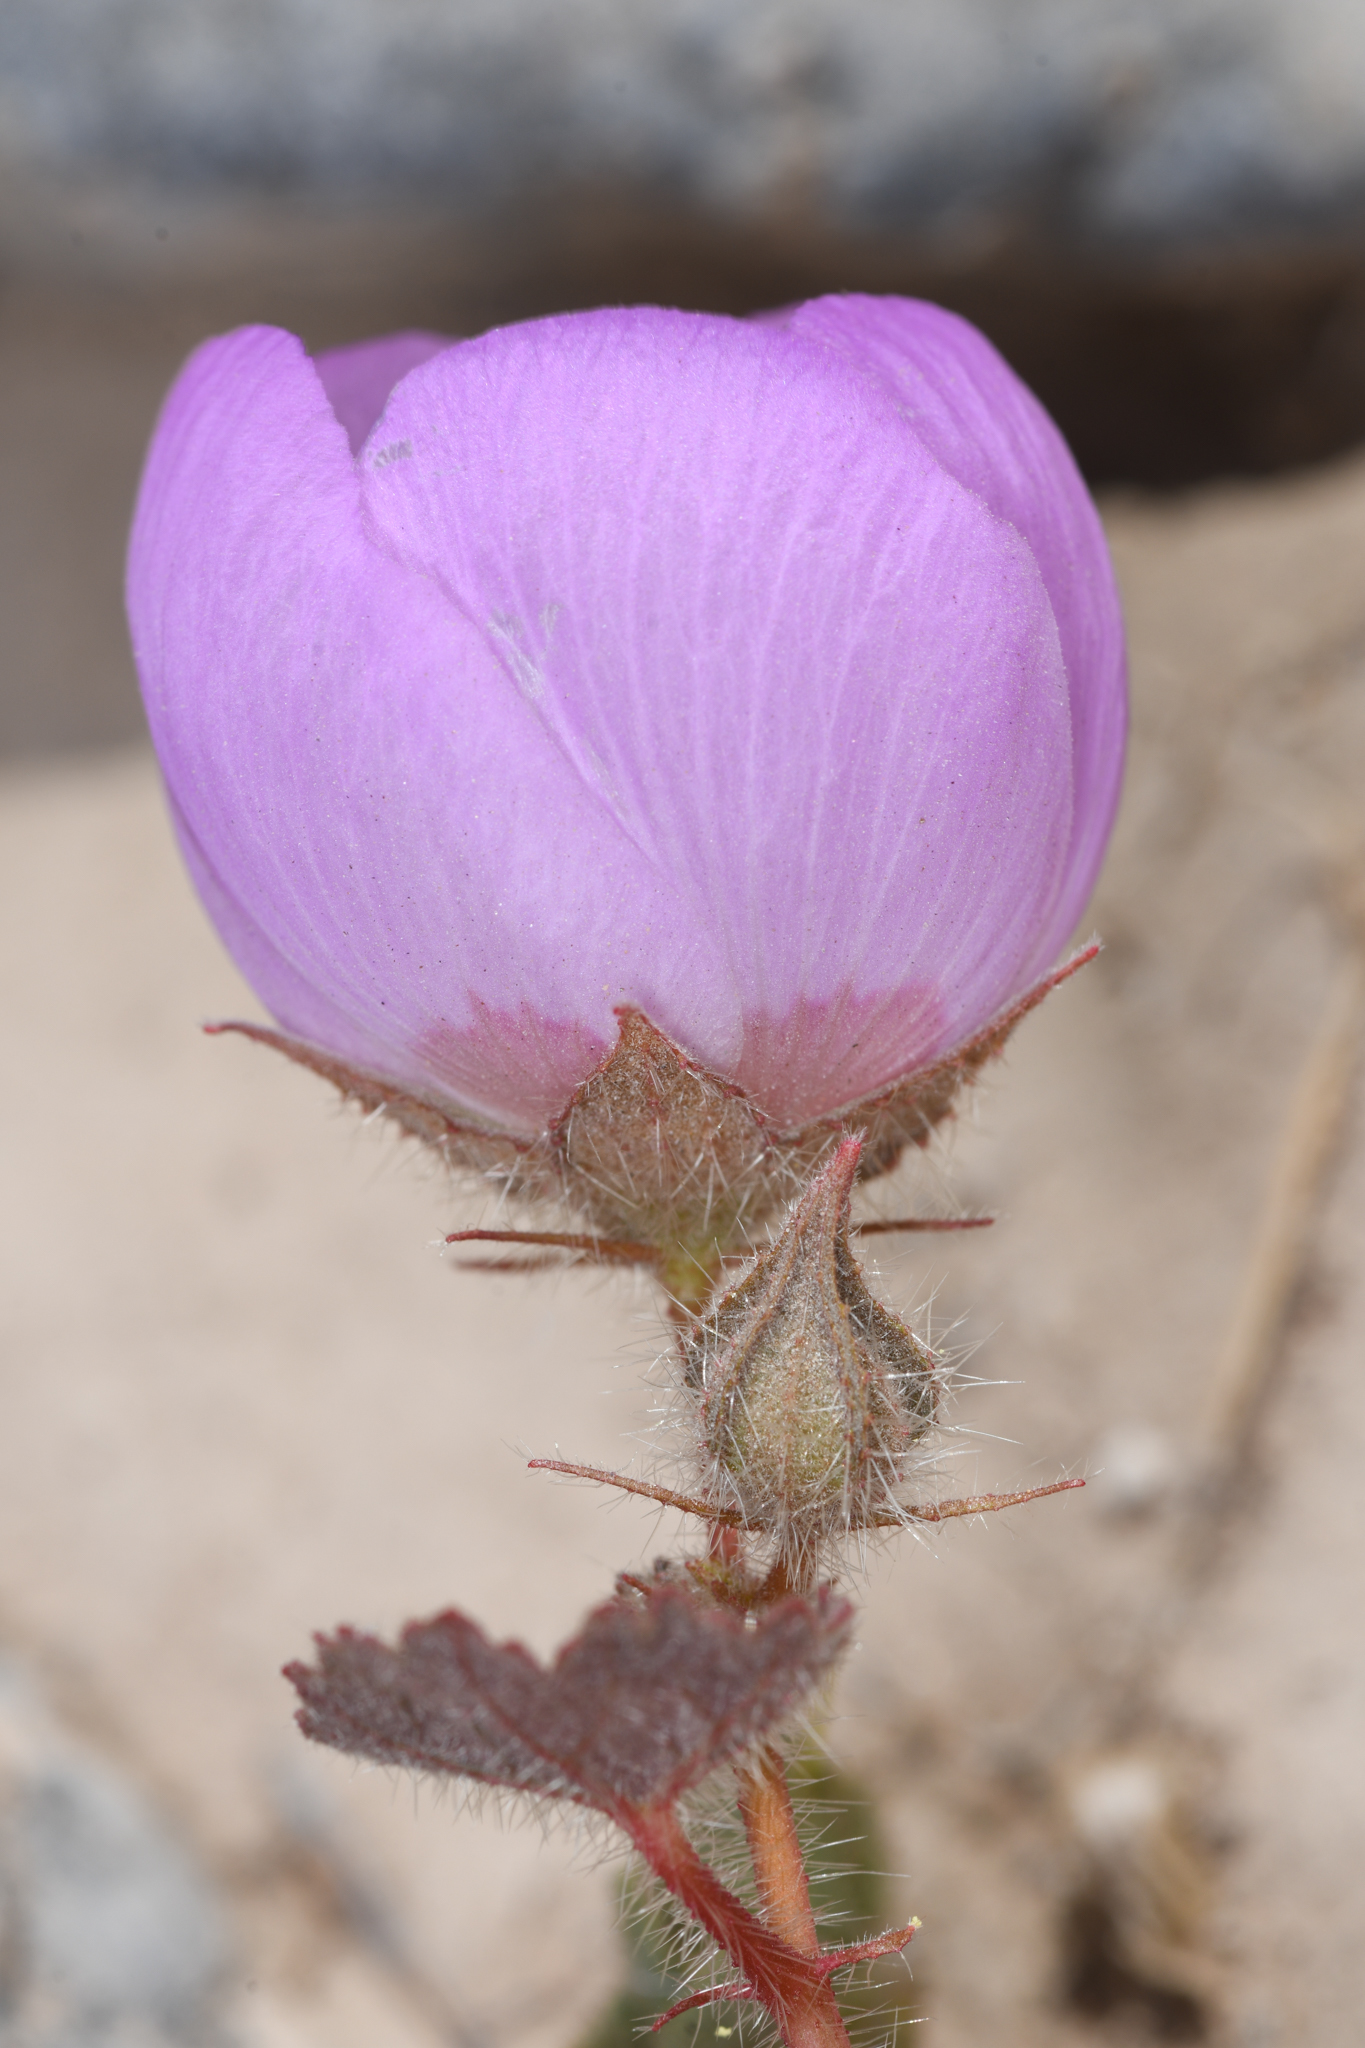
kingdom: Plantae
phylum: Tracheophyta
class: Magnoliopsida
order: Malvales
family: Malvaceae
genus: Eremalche
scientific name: Eremalche rotundifolia
